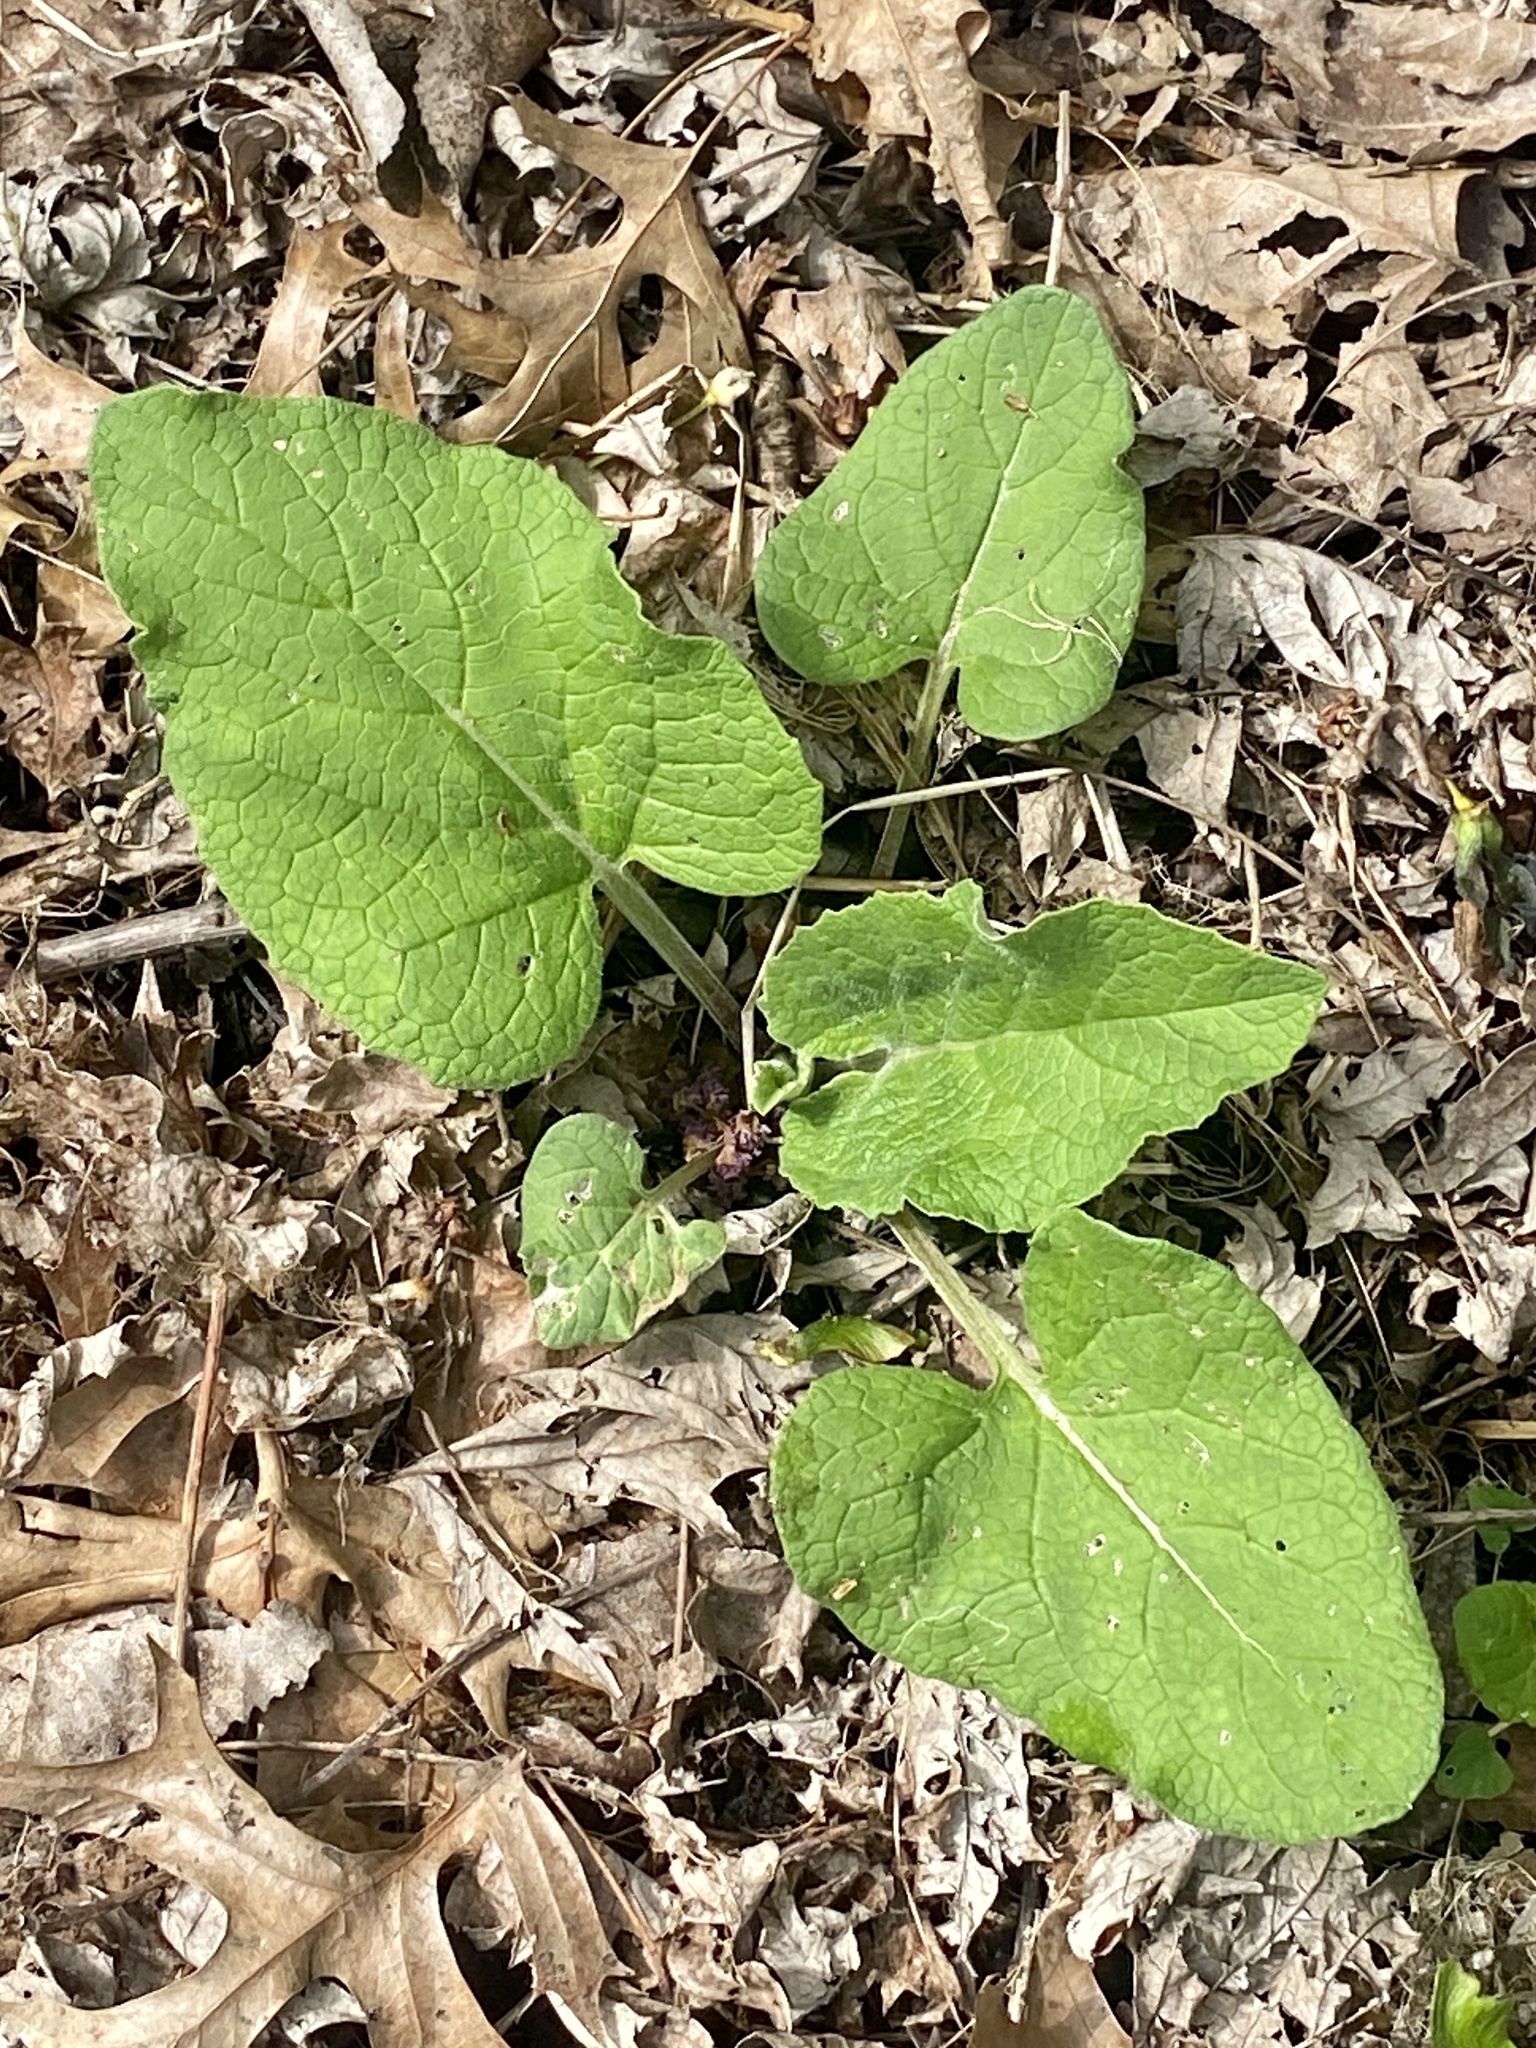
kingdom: Plantae
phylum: Tracheophyta
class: Magnoliopsida
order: Asterales
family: Asteraceae
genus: Arctium
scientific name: Arctium minus
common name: Lesser burdock
